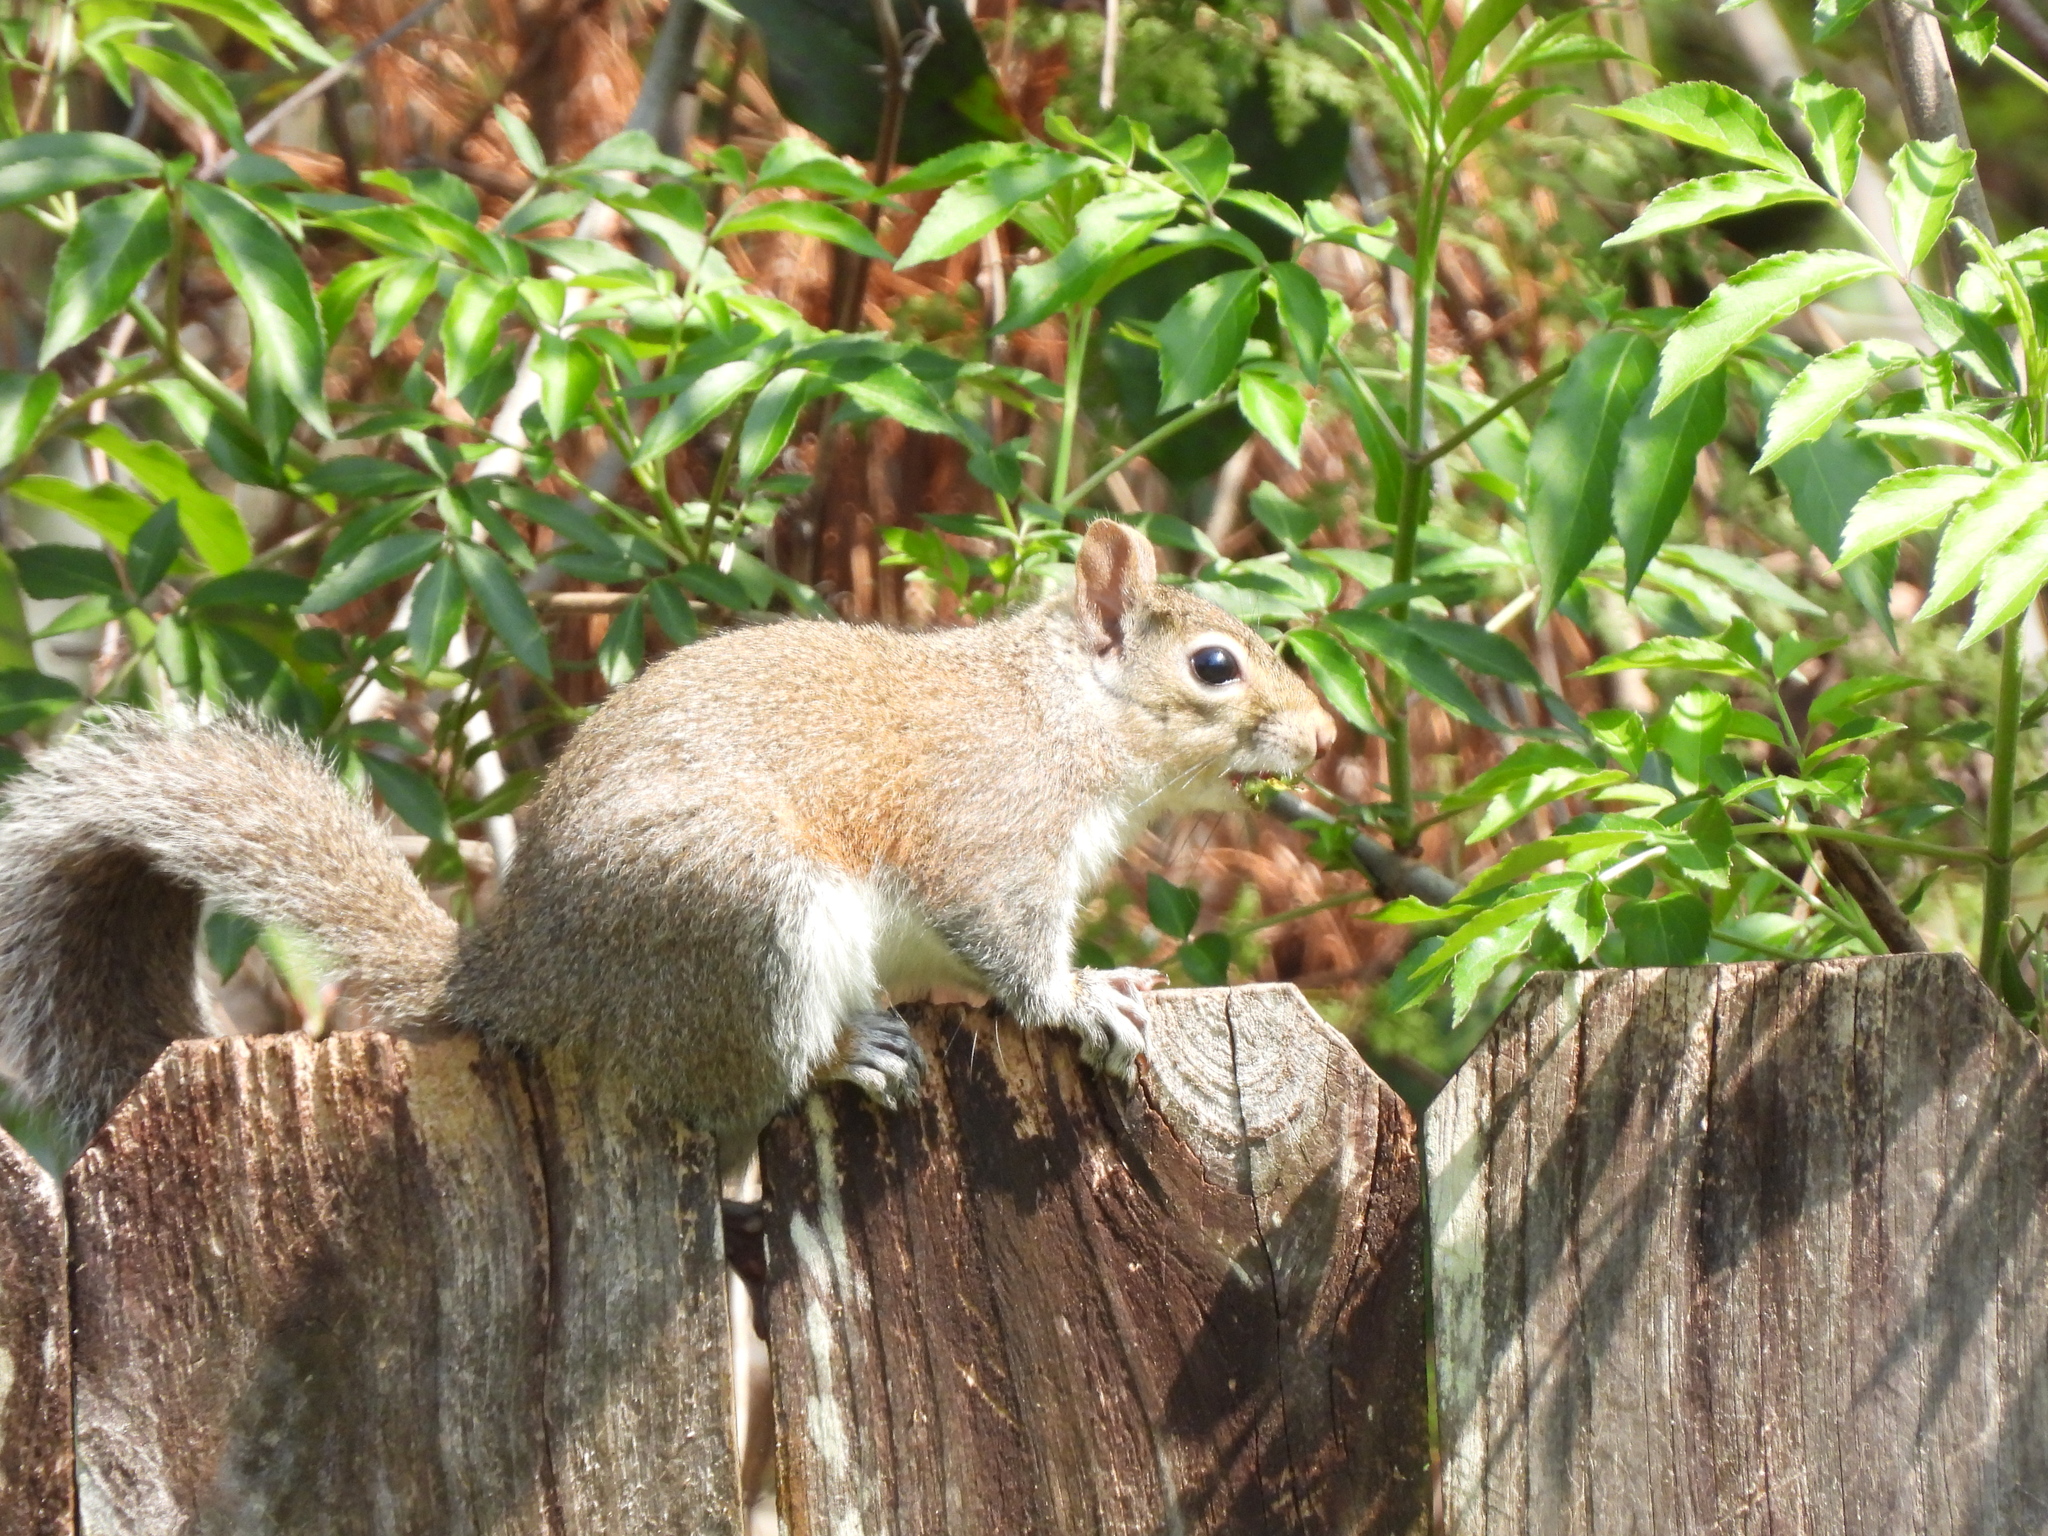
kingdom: Animalia
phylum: Chordata
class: Mammalia
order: Rodentia
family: Sciuridae
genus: Sciurus
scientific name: Sciurus carolinensis
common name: Eastern gray squirrel
